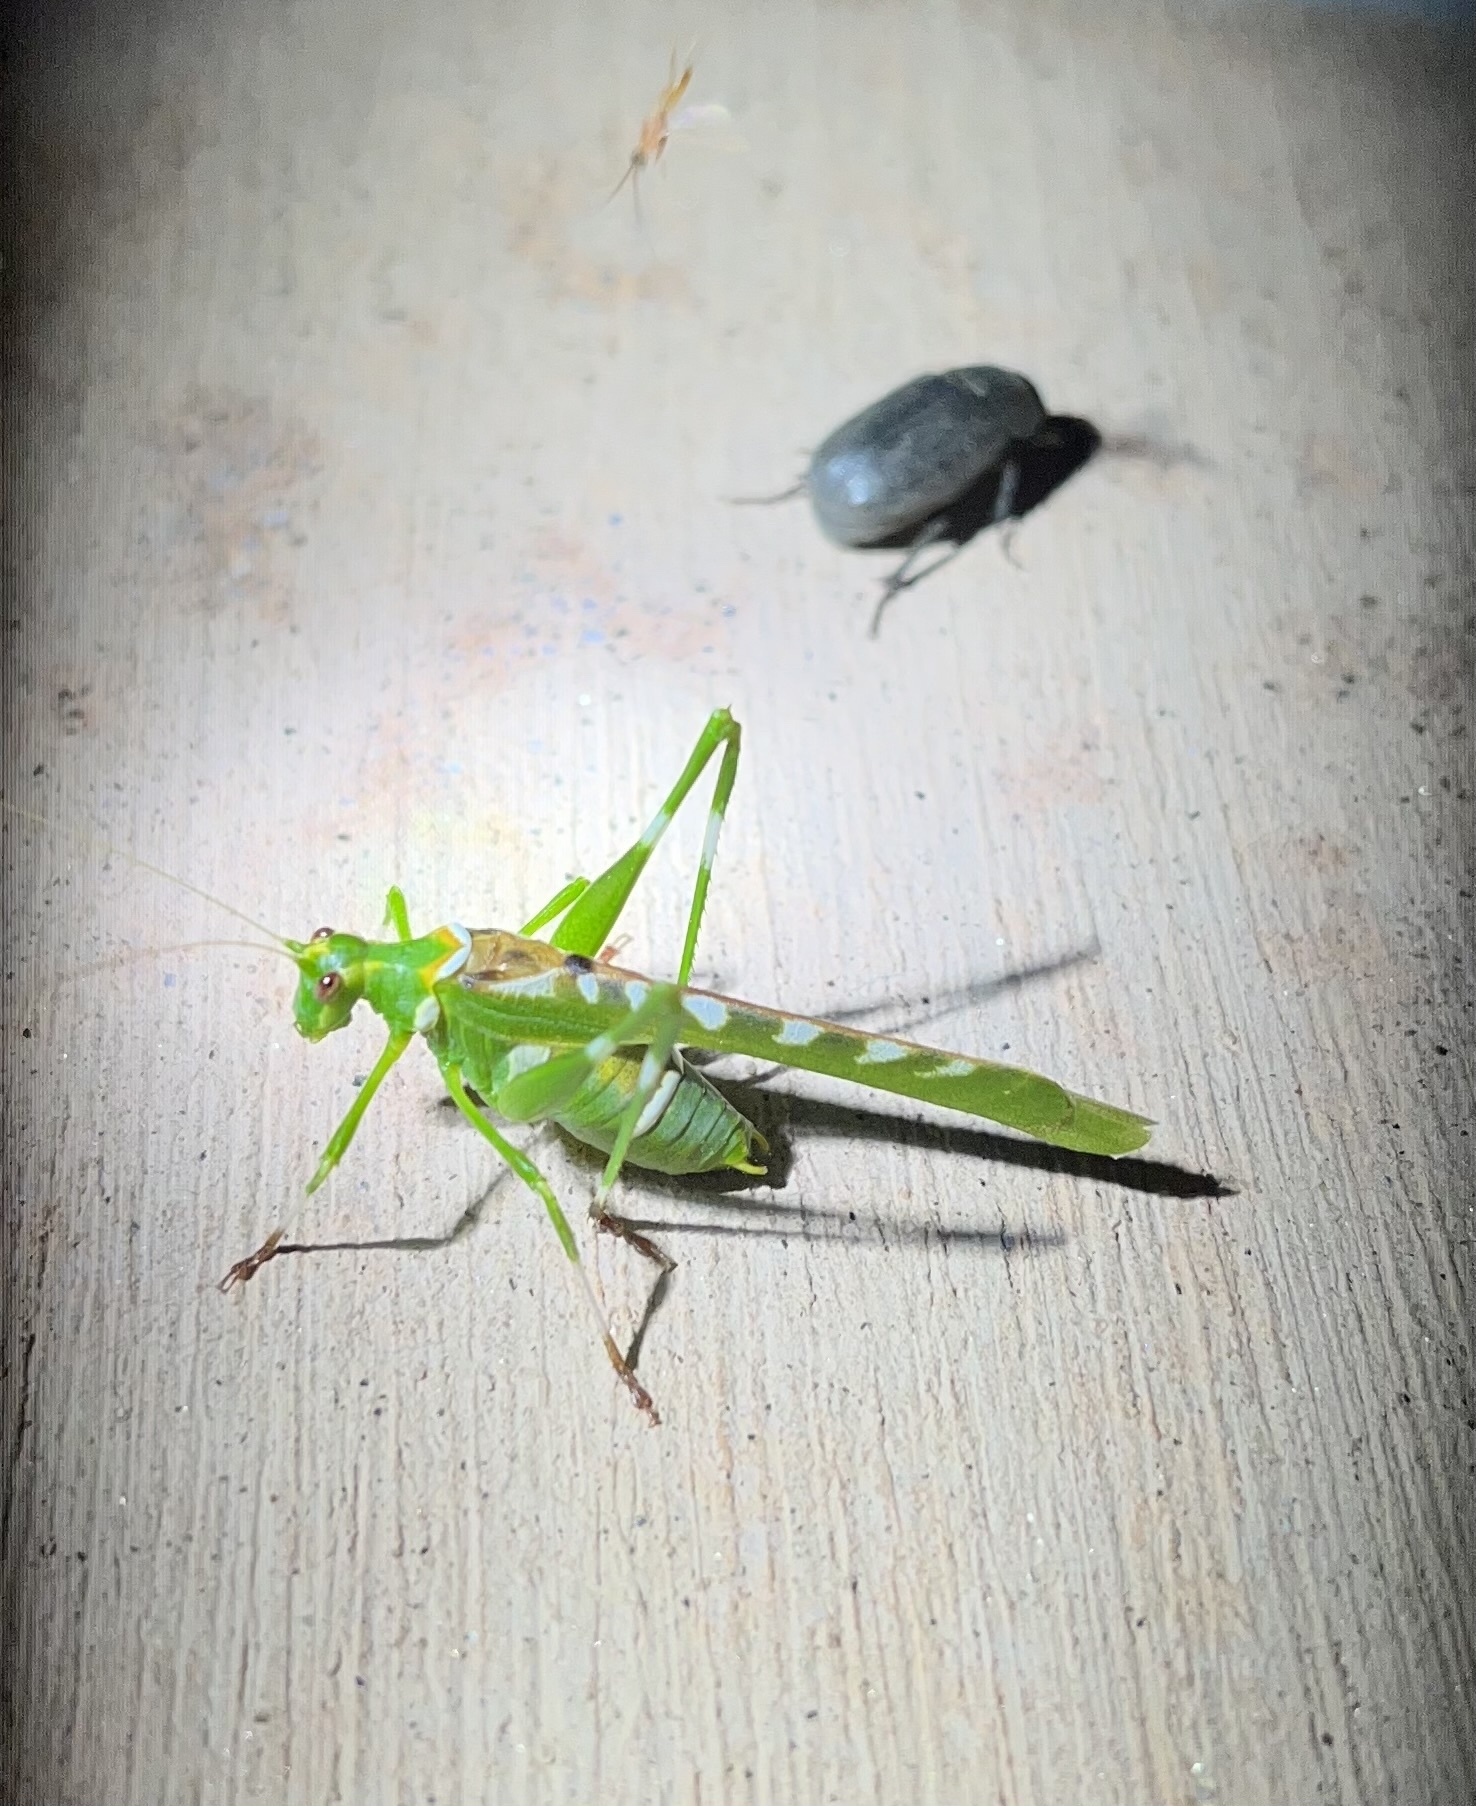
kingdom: Animalia
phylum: Arthropoda
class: Insecta
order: Orthoptera
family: Tettigoniidae
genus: Insara
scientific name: Insara covilleae
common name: Creosote bush katydid
